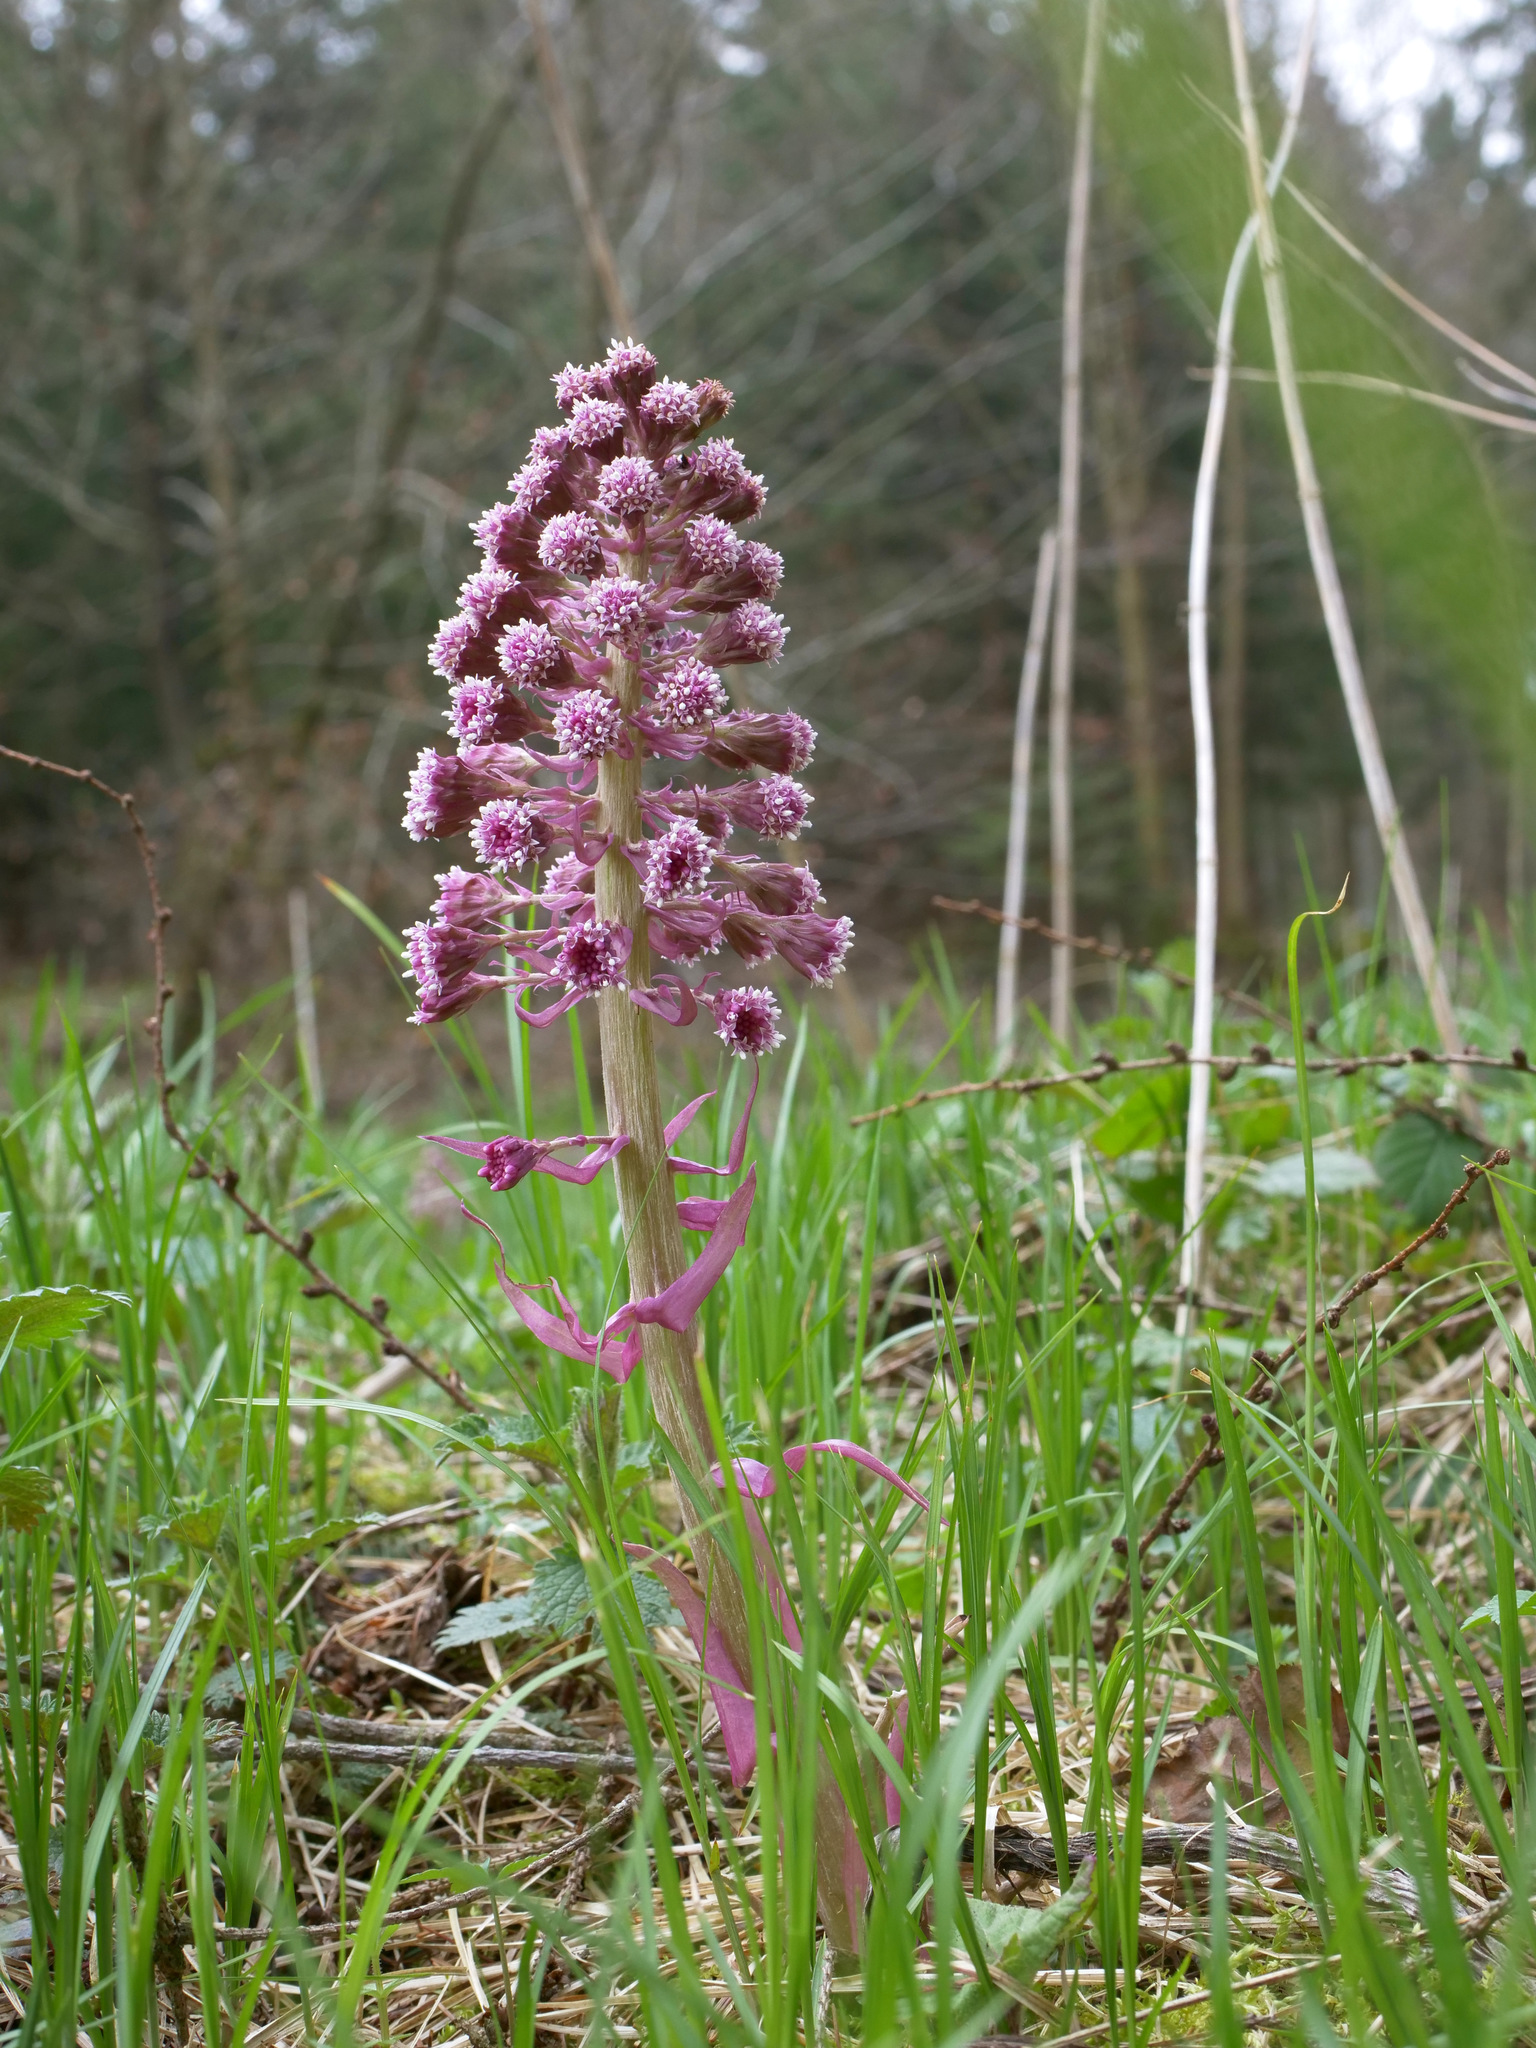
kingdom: Plantae
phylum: Tracheophyta
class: Magnoliopsida
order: Asterales
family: Asteraceae
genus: Petasites
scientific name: Petasites hybridus
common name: Butterbur
